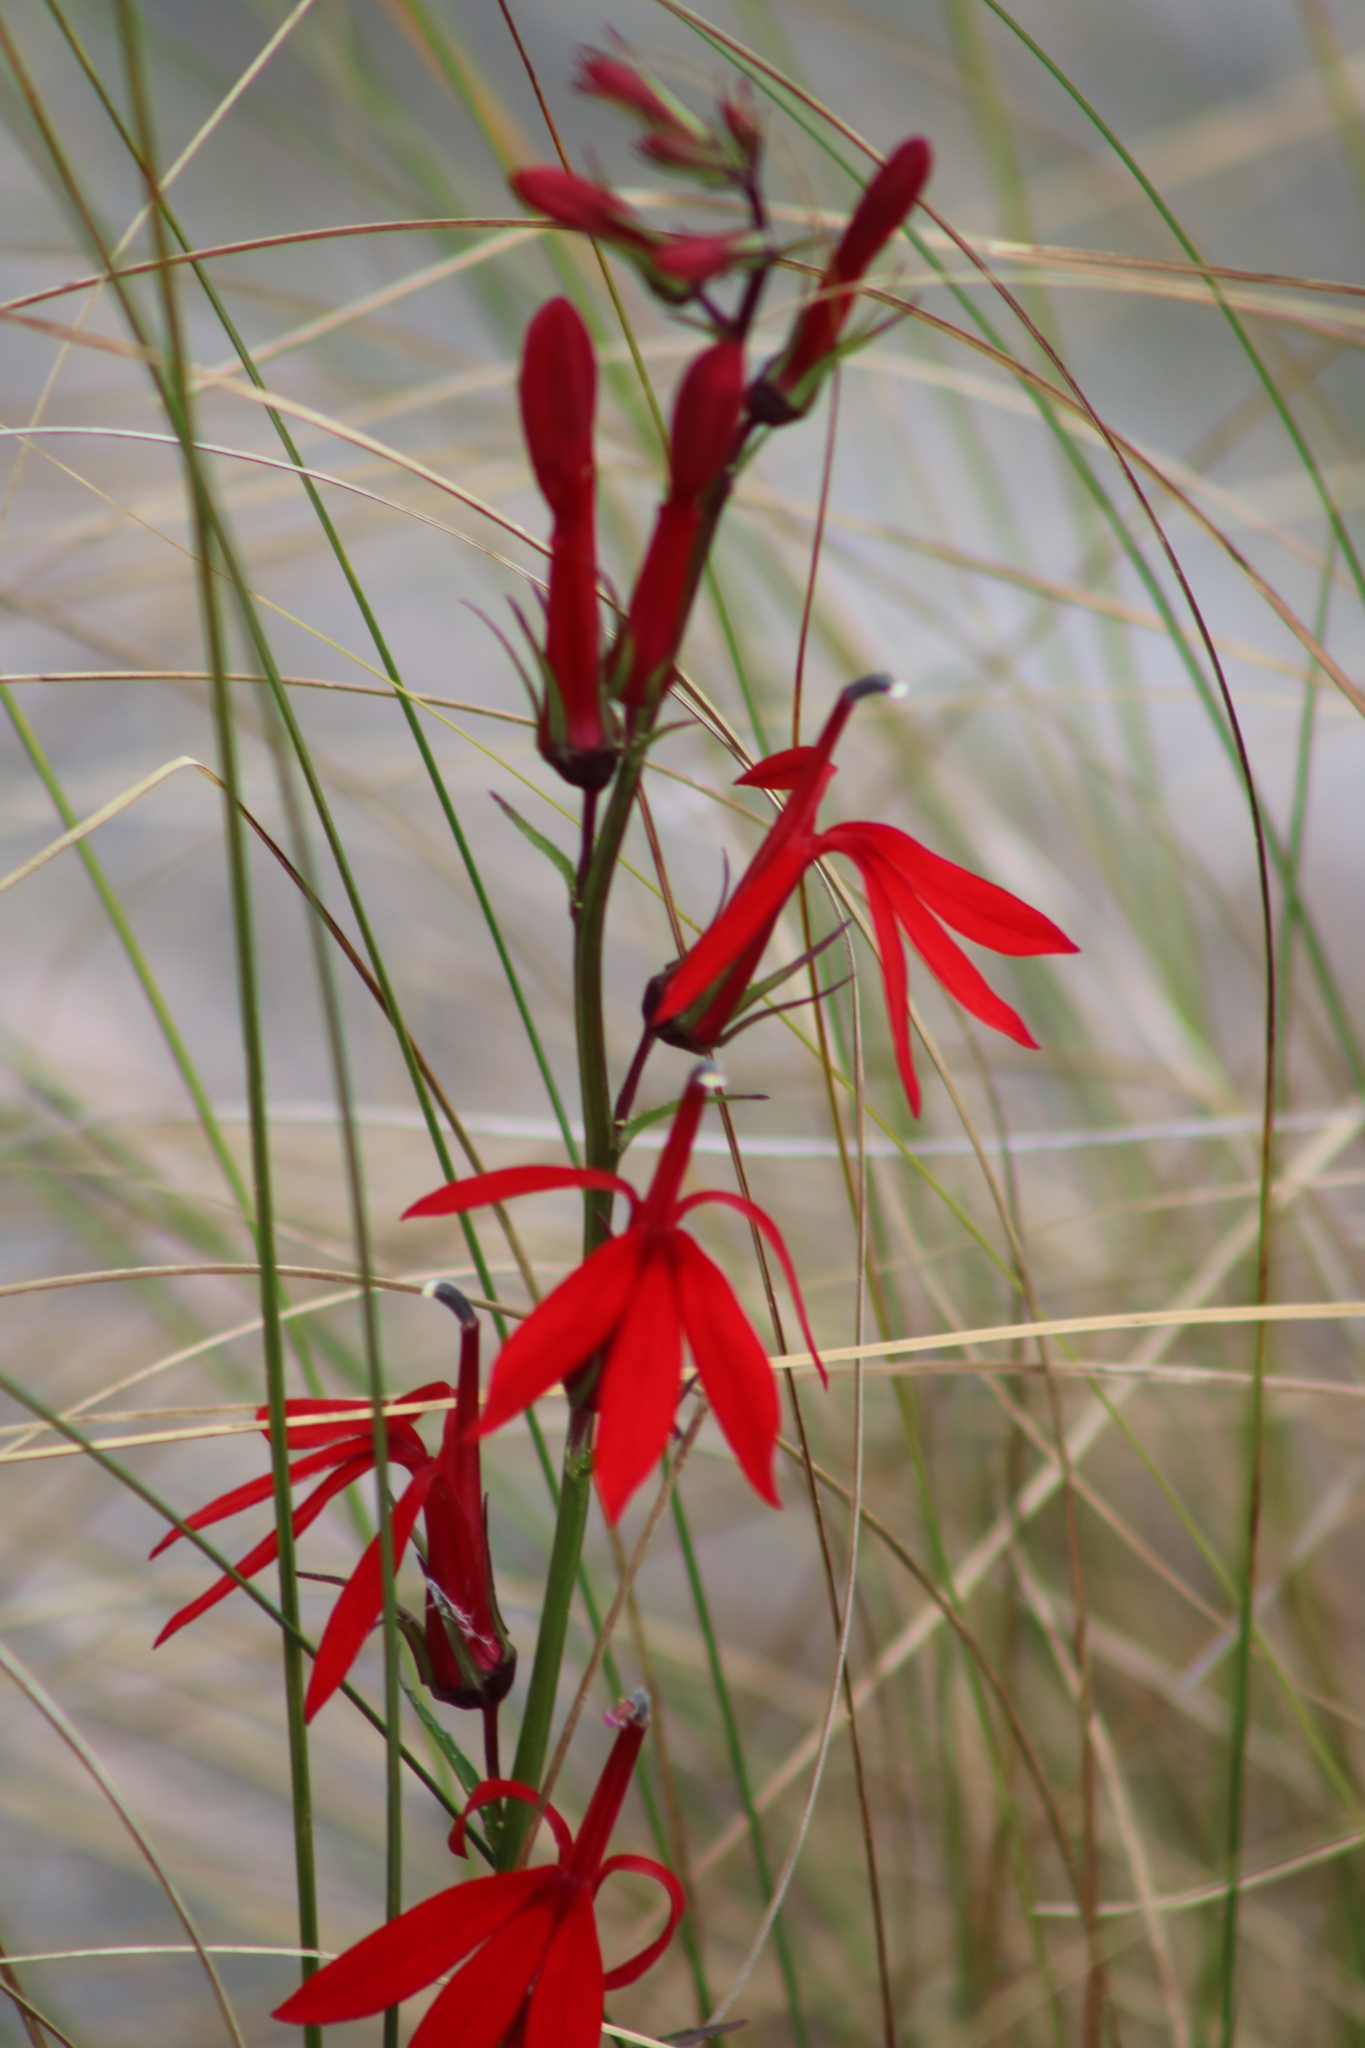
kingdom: Plantae
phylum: Tracheophyta
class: Magnoliopsida
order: Asterales
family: Campanulaceae
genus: Lobelia
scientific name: Lobelia cardinalis
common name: Cardinal flower
